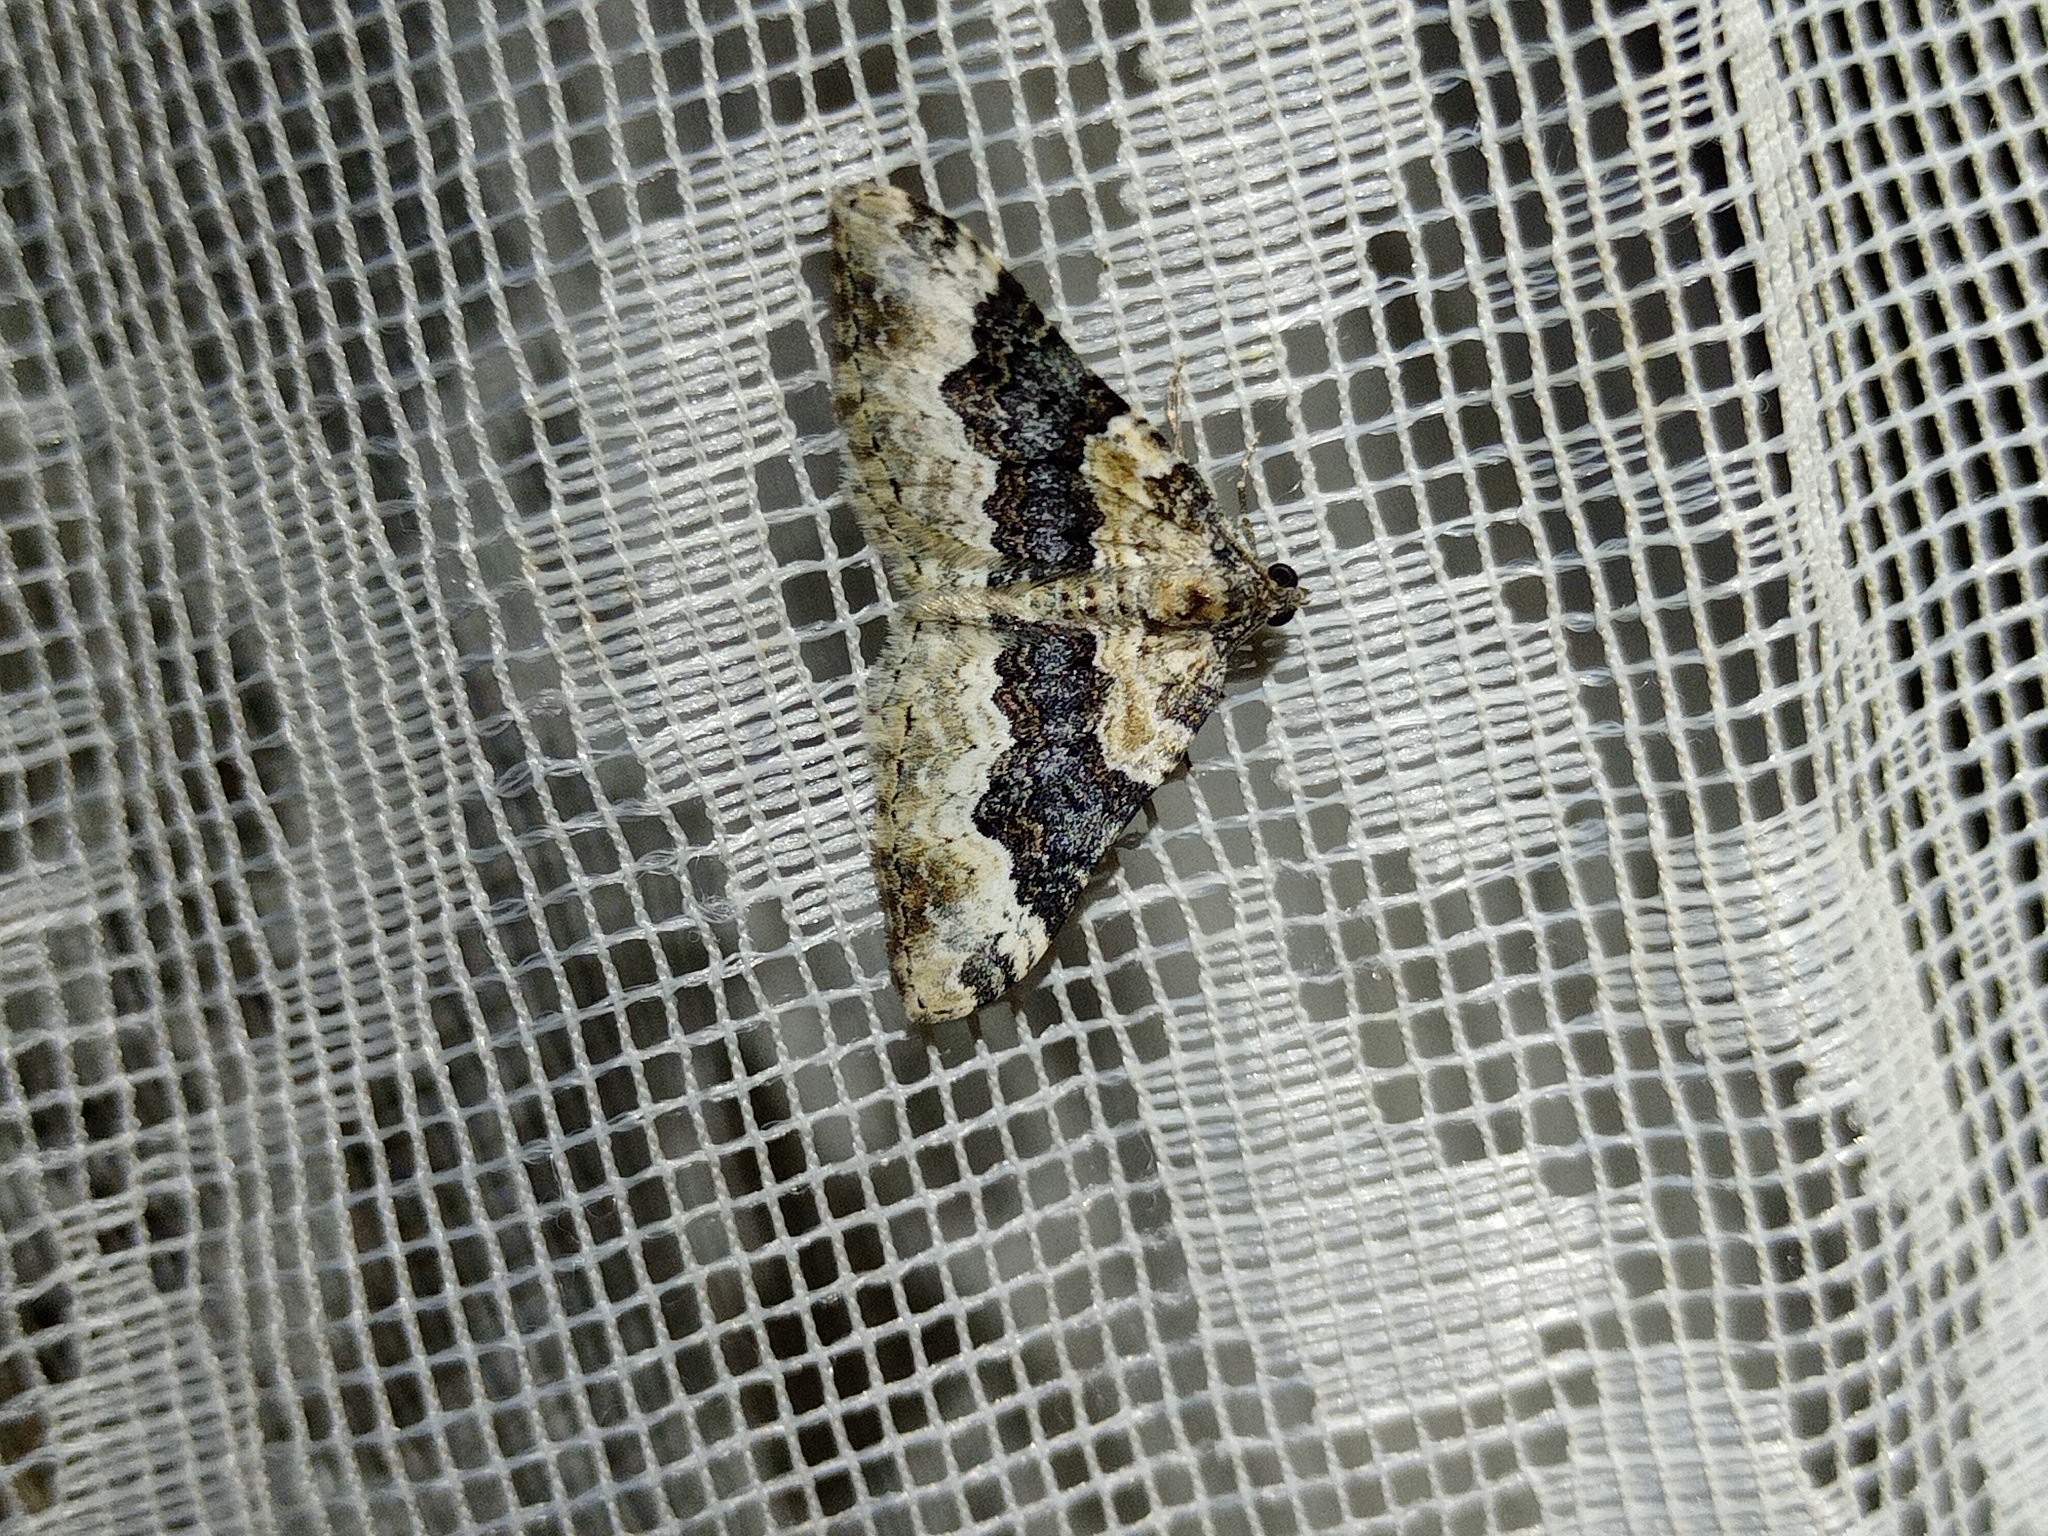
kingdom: Animalia
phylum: Arthropoda
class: Insecta
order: Lepidoptera
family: Geometridae
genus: Epirrhoe
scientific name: Epirrhoe galiata
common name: Galium carpet
